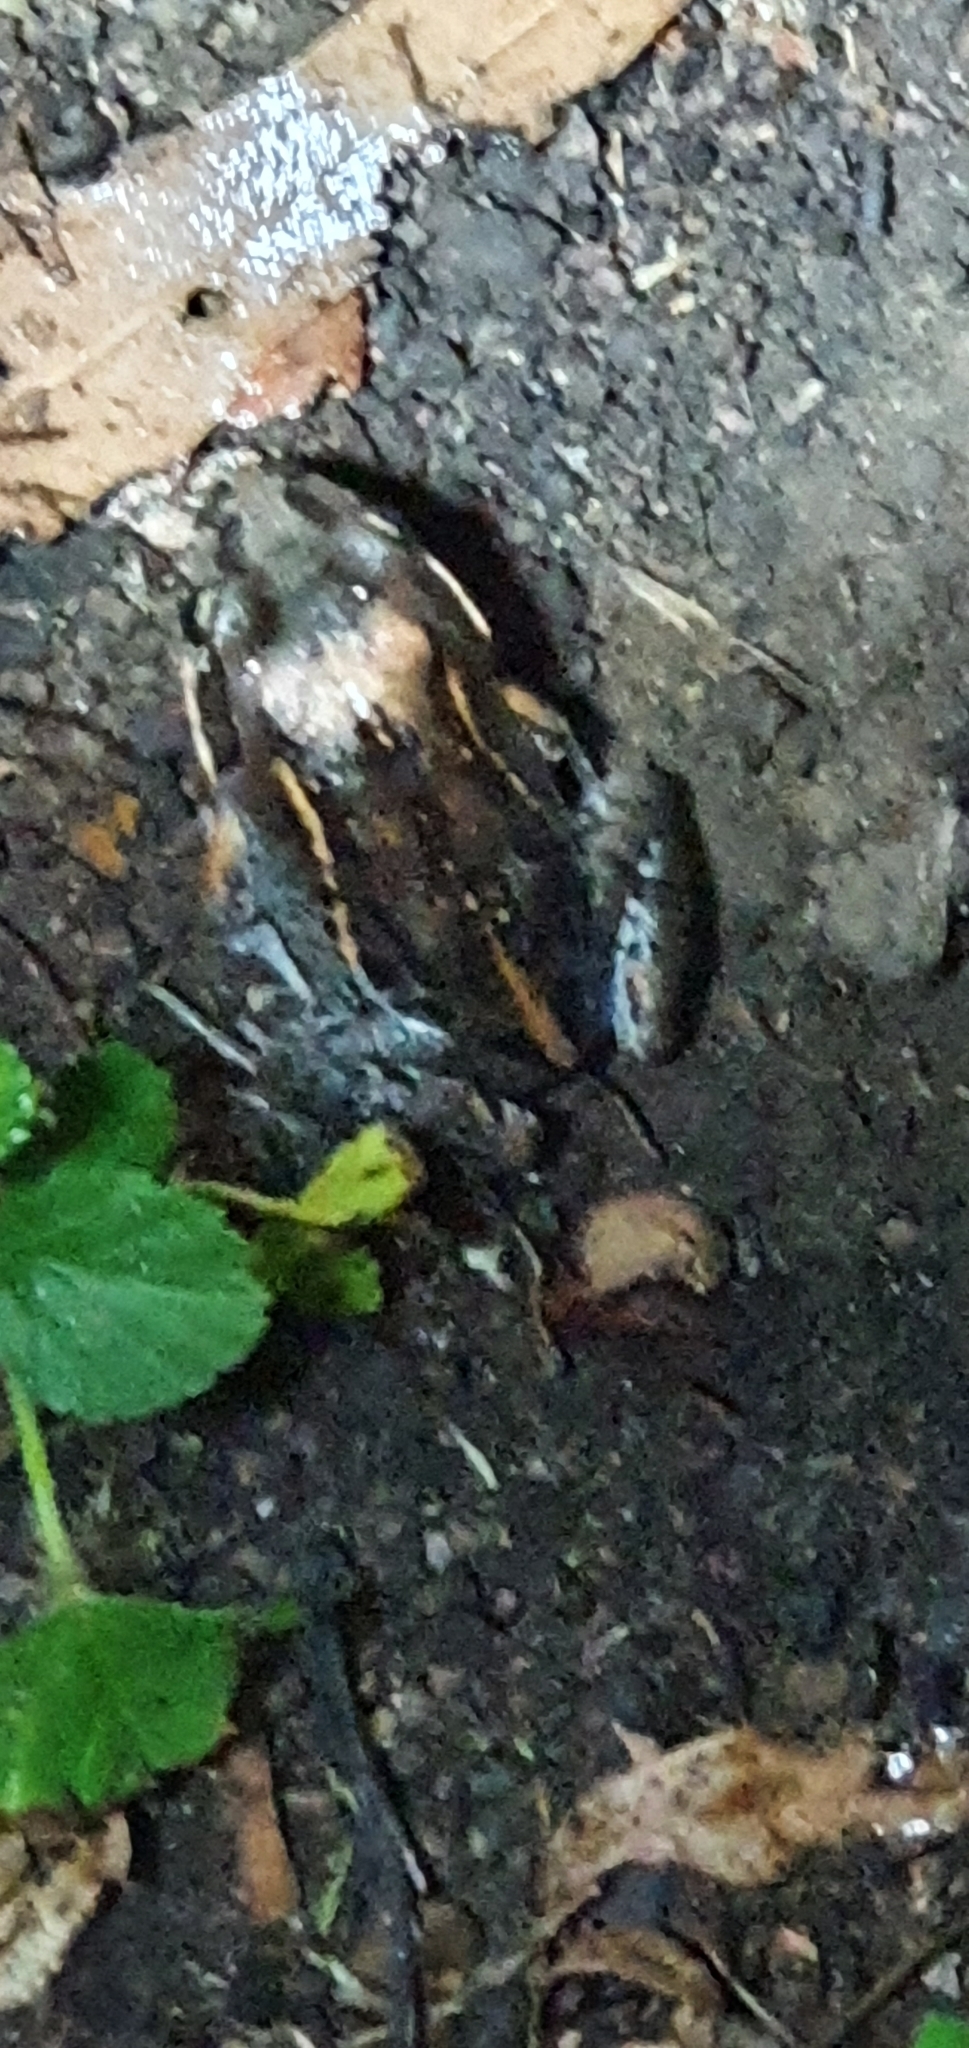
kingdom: Animalia
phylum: Chordata
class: Amphibia
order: Anura
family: Limnodynastidae
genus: Limnodynastes
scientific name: Limnodynastes salmini
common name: Salmon-striped frog
